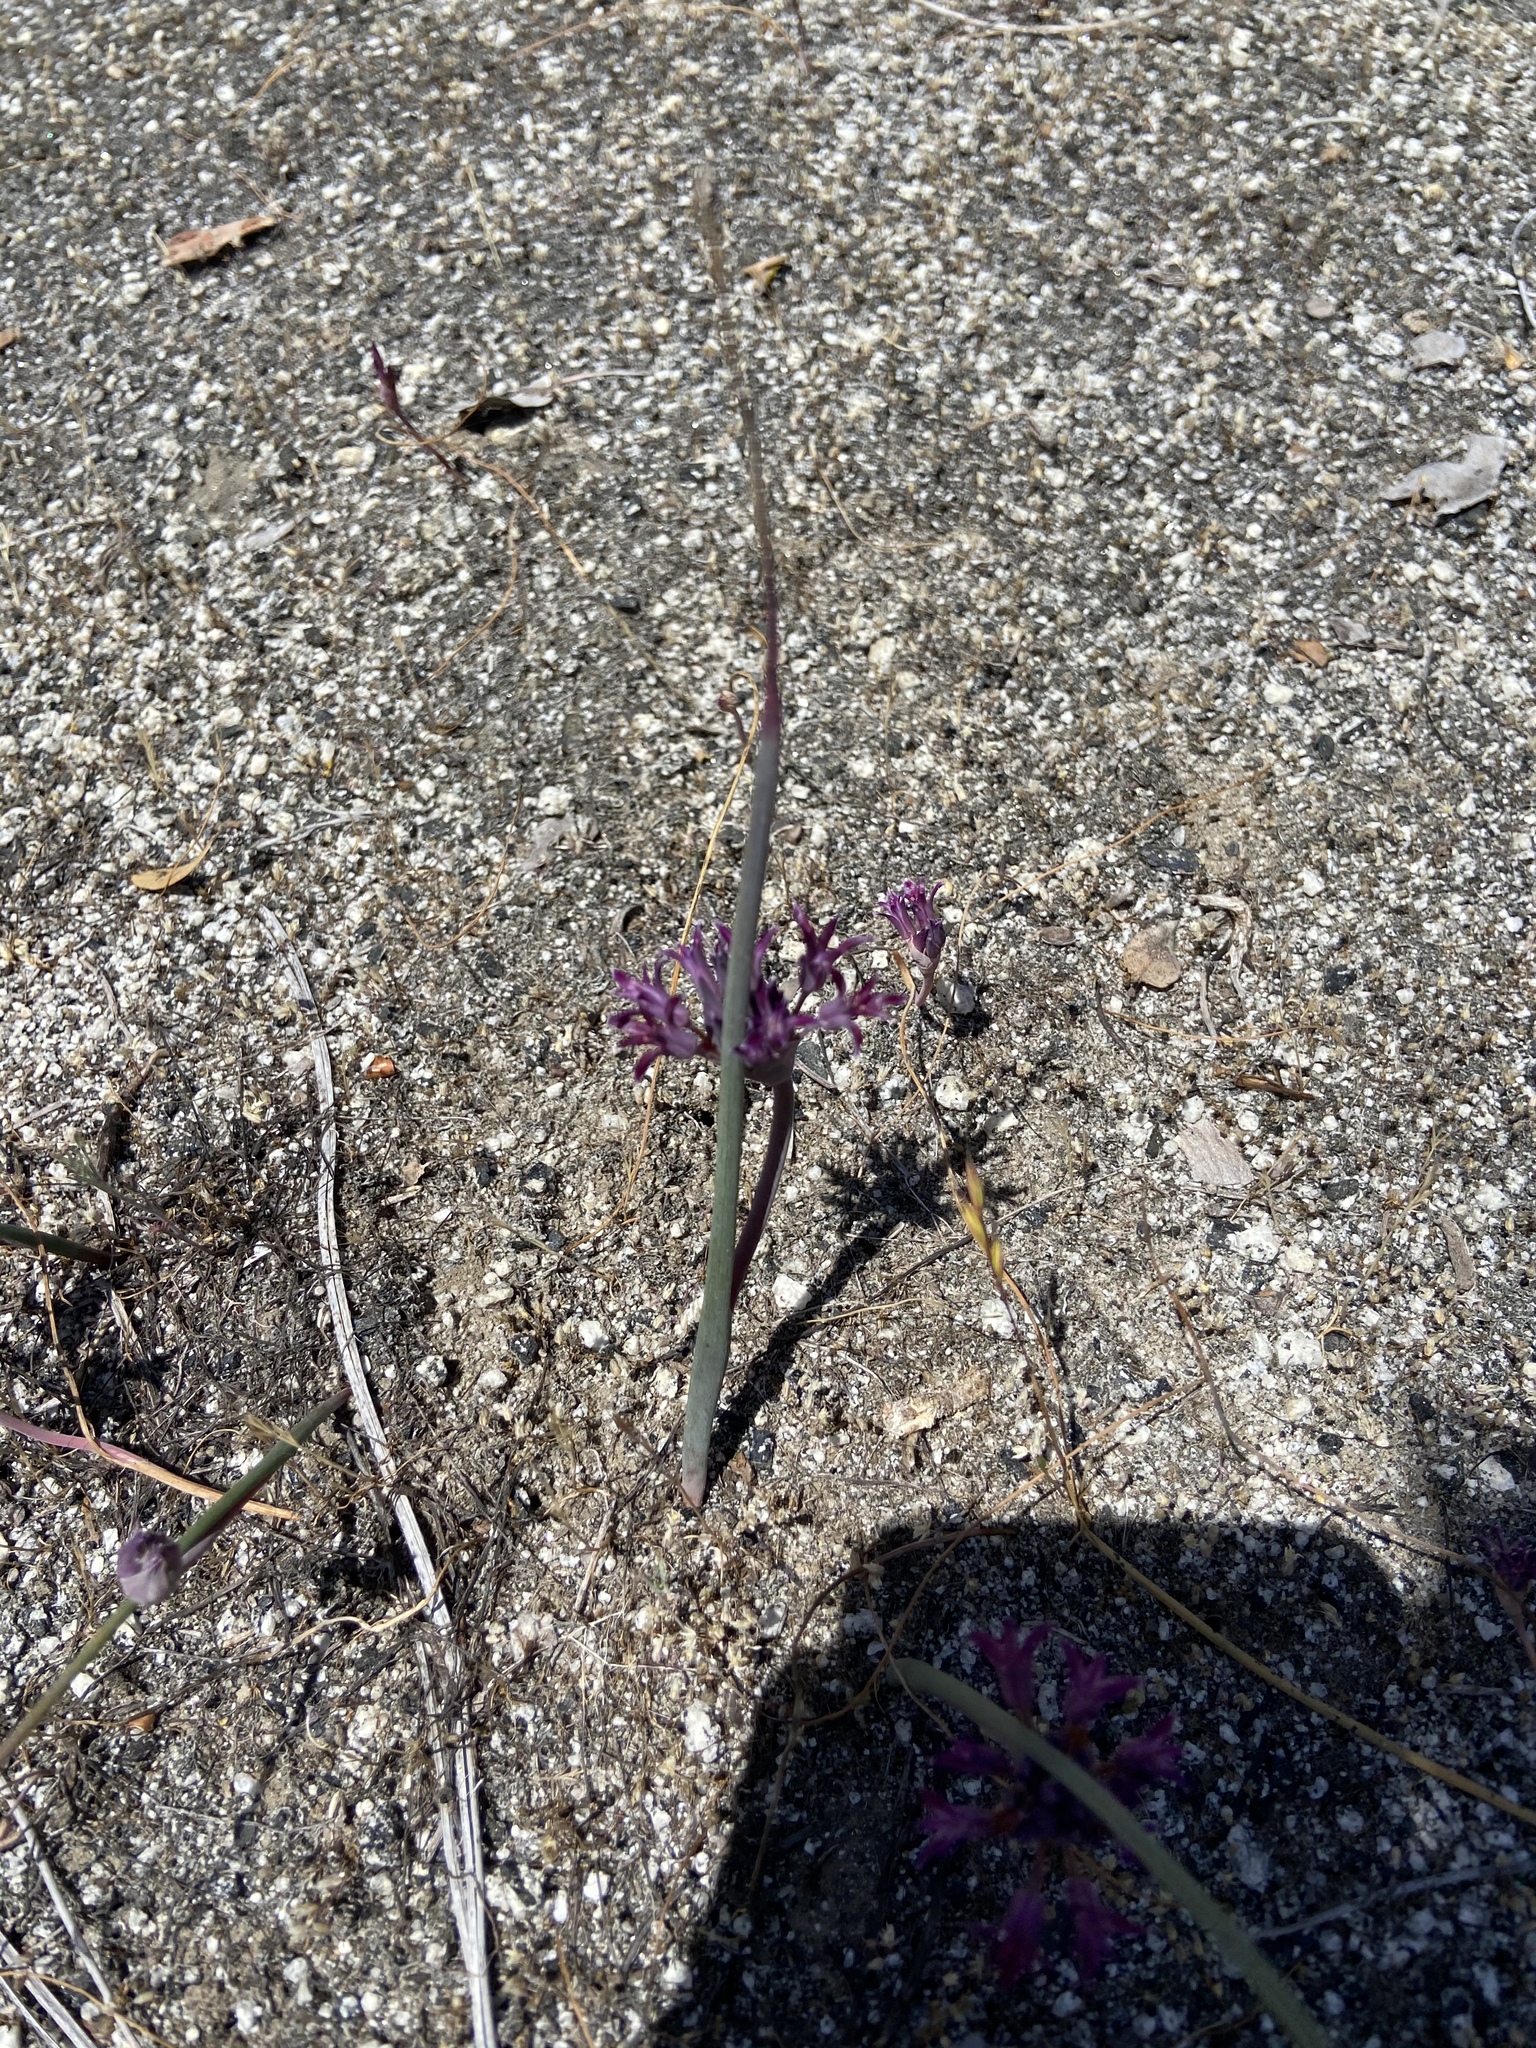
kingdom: Plantae
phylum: Tracheophyta
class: Liliopsida
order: Asparagales
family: Amaryllidaceae
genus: Allium
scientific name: Allium abramsii
